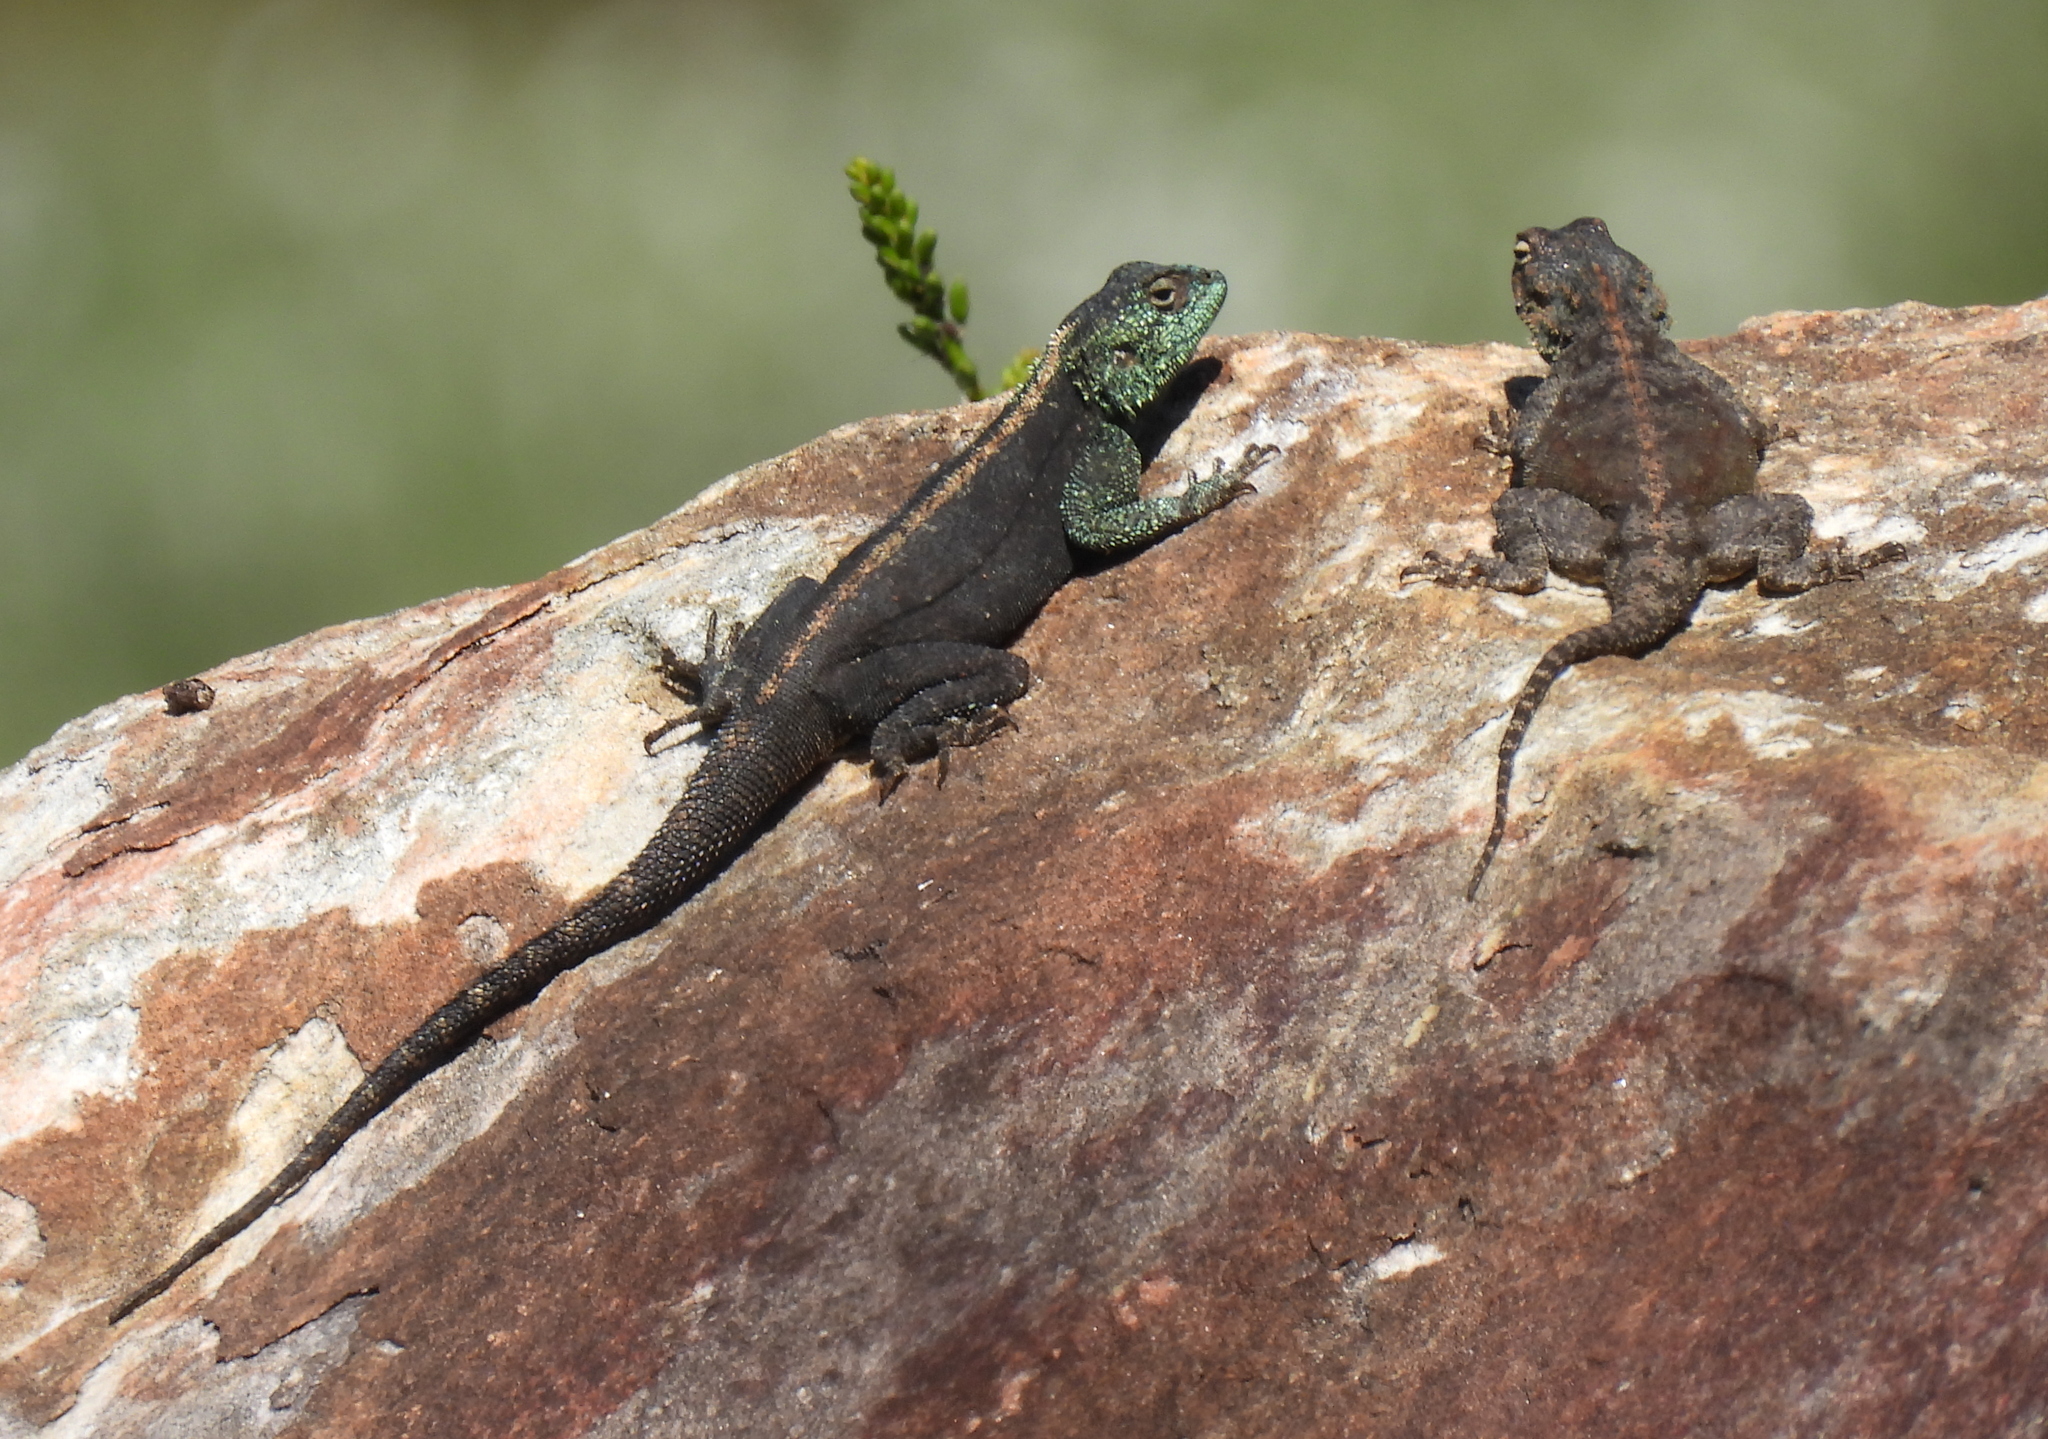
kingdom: Animalia
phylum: Chordata
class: Squamata
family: Agamidae
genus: Agama
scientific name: Agama atra
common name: Southern african rock agama
